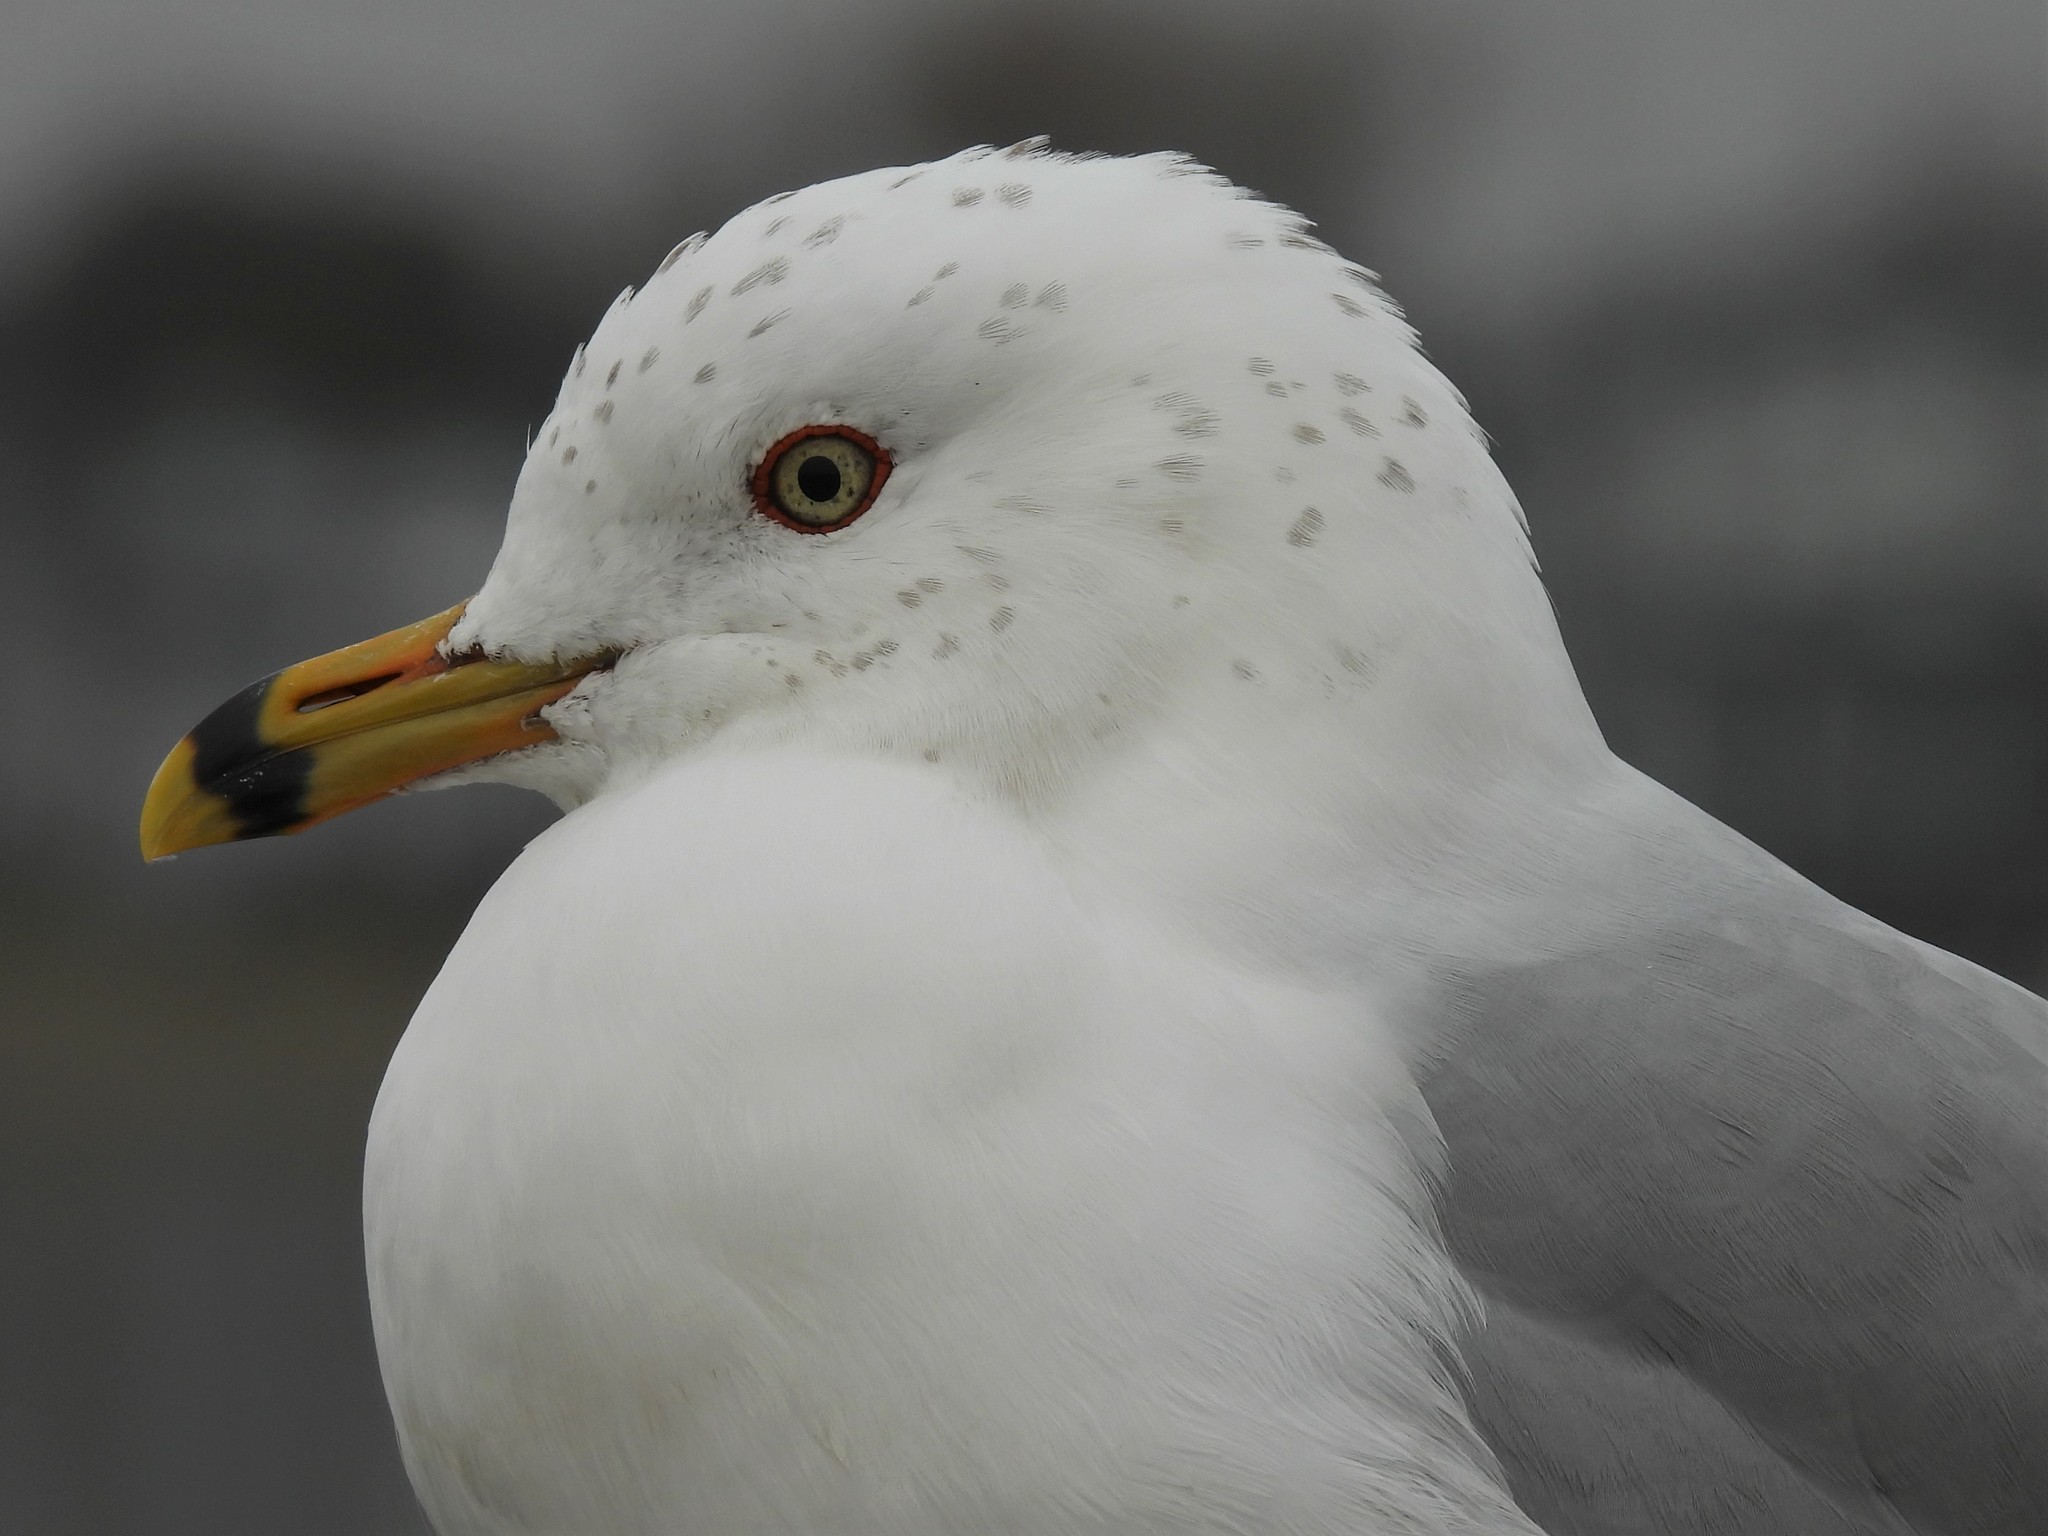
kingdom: Animalia
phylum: Chordata
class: Aves
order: Charadriiformes
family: Laridae
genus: Larus
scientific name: Larus delawarensis
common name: Ring-billed gull
